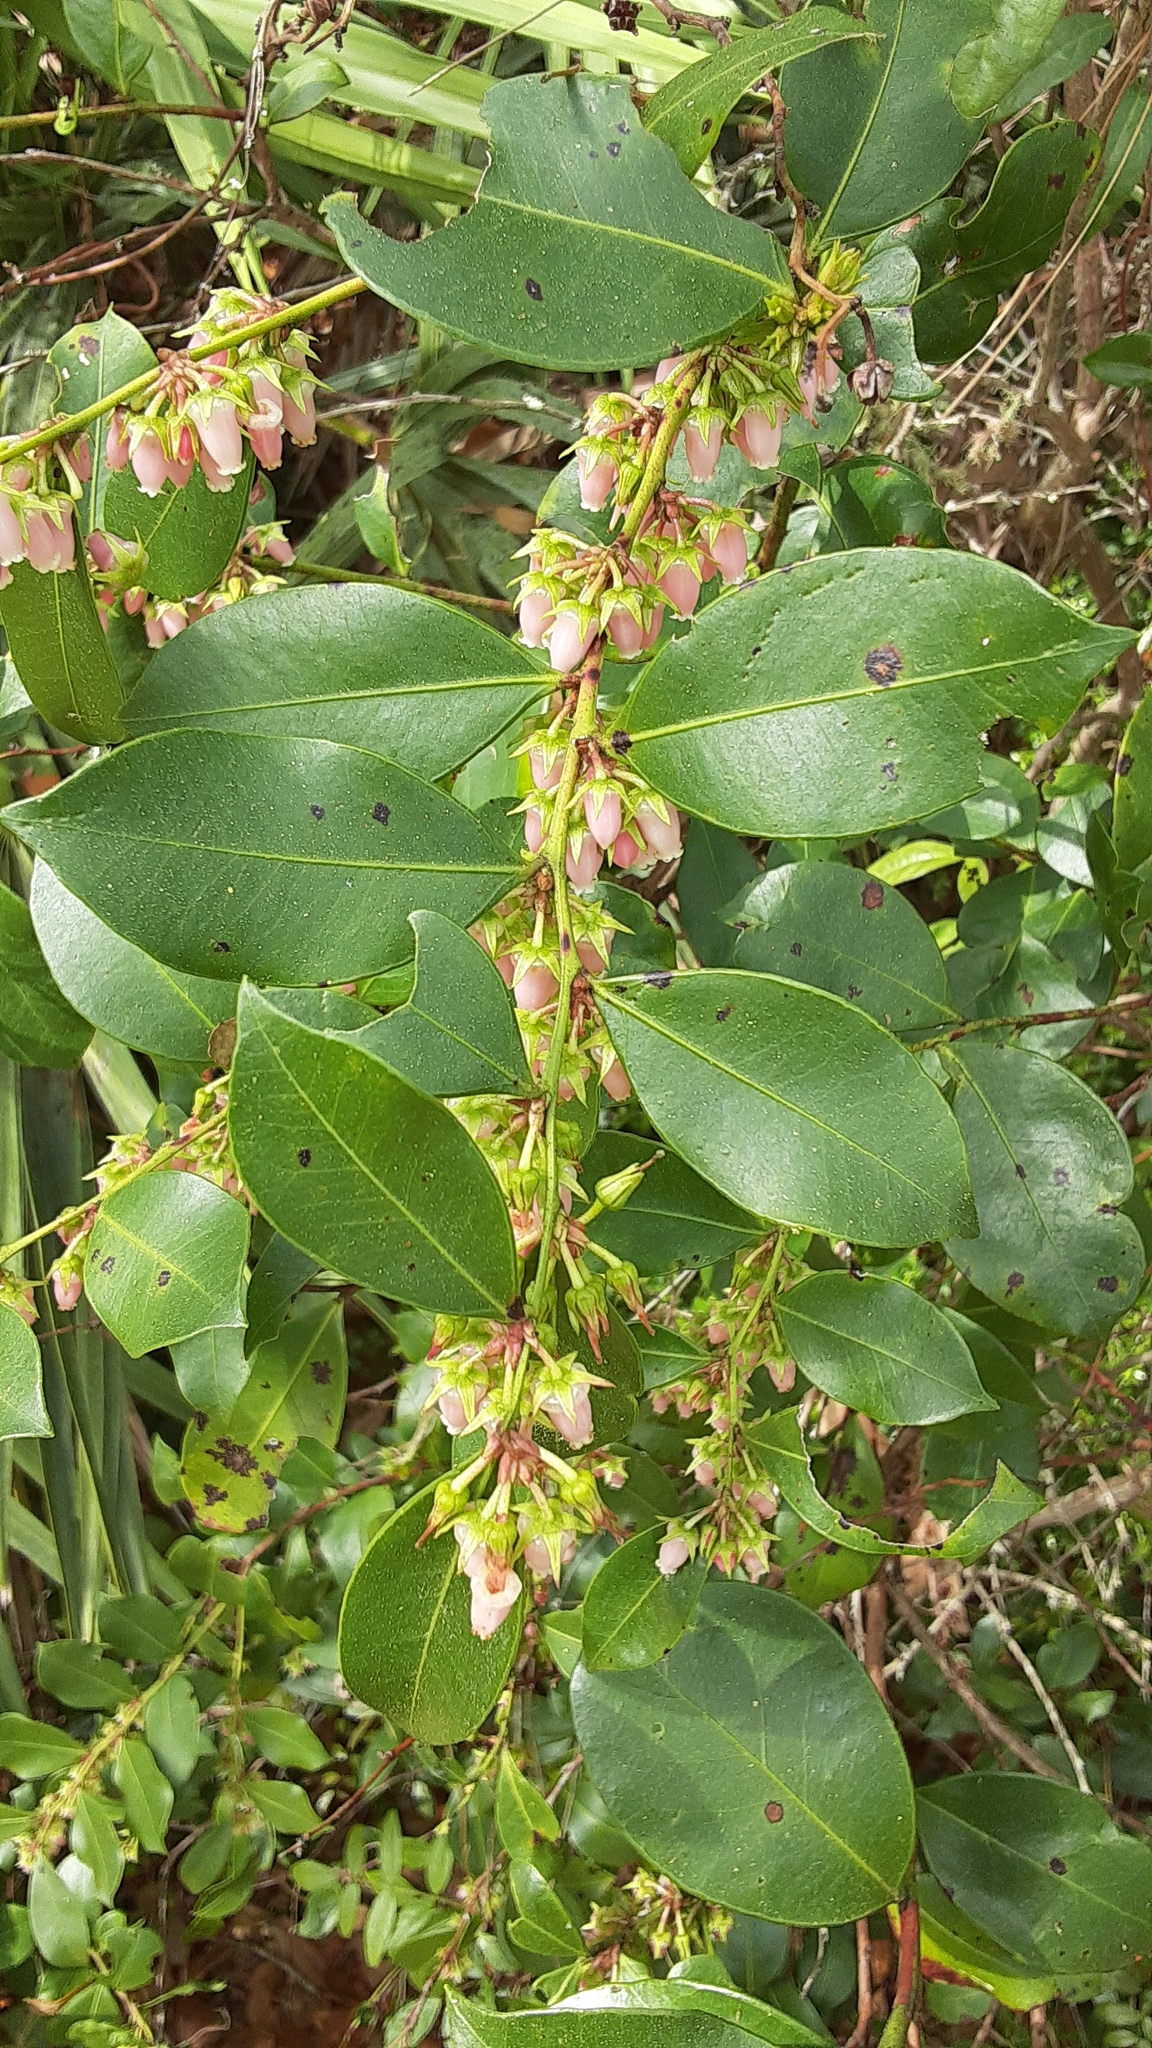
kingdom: Plantae
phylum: Tracheophyta
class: Magnoliopsida
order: Ericales
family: Ericaceae
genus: Lyonia
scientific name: Lyonia lucida
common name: Fetterbush
